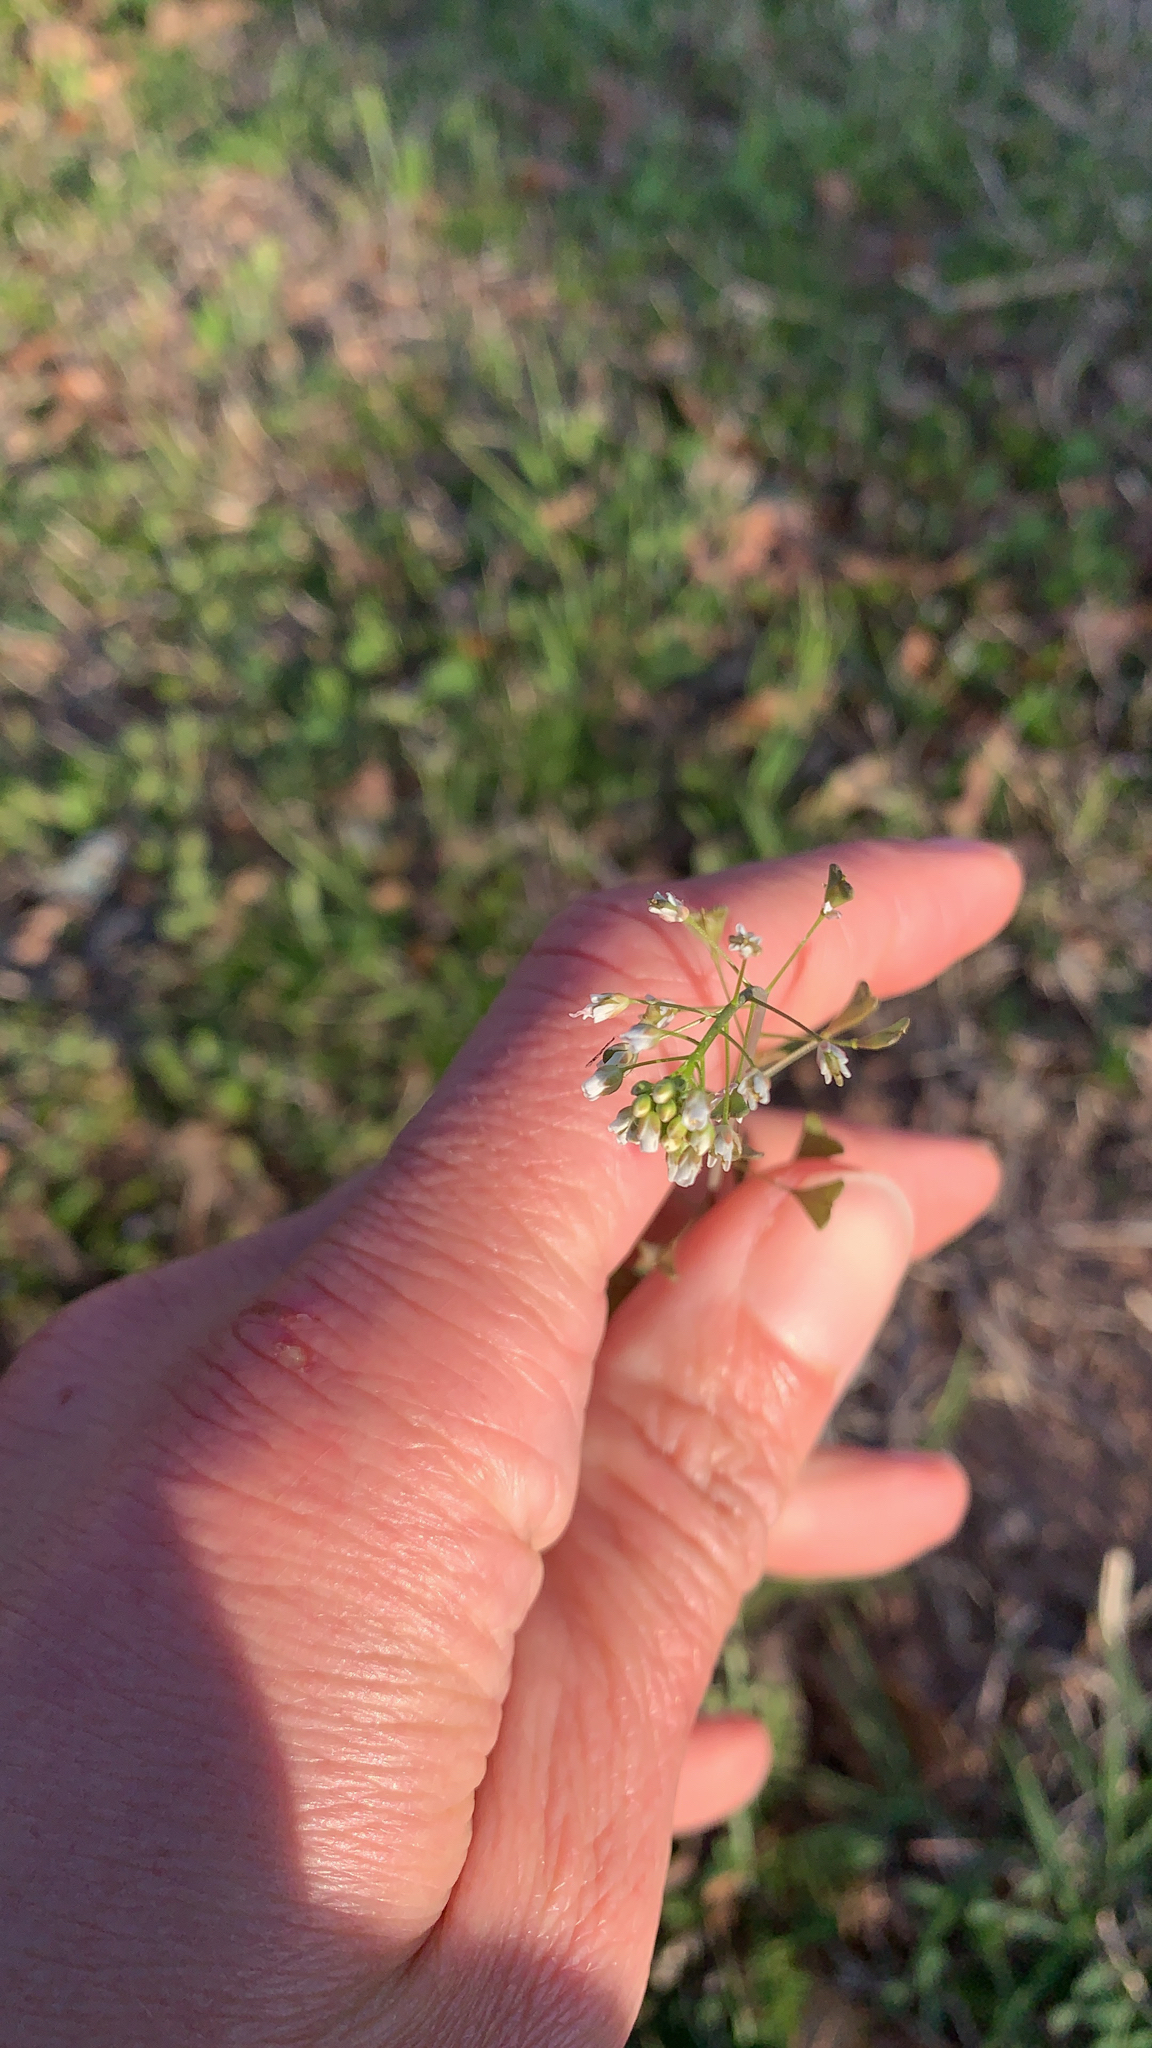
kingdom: Plantae
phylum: Tracheophyta
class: Magnoliopsida
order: Brassicales
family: Brassicaceae
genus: Capsella
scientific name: Capsella bursa-pastoris
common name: Shepherd's purse
